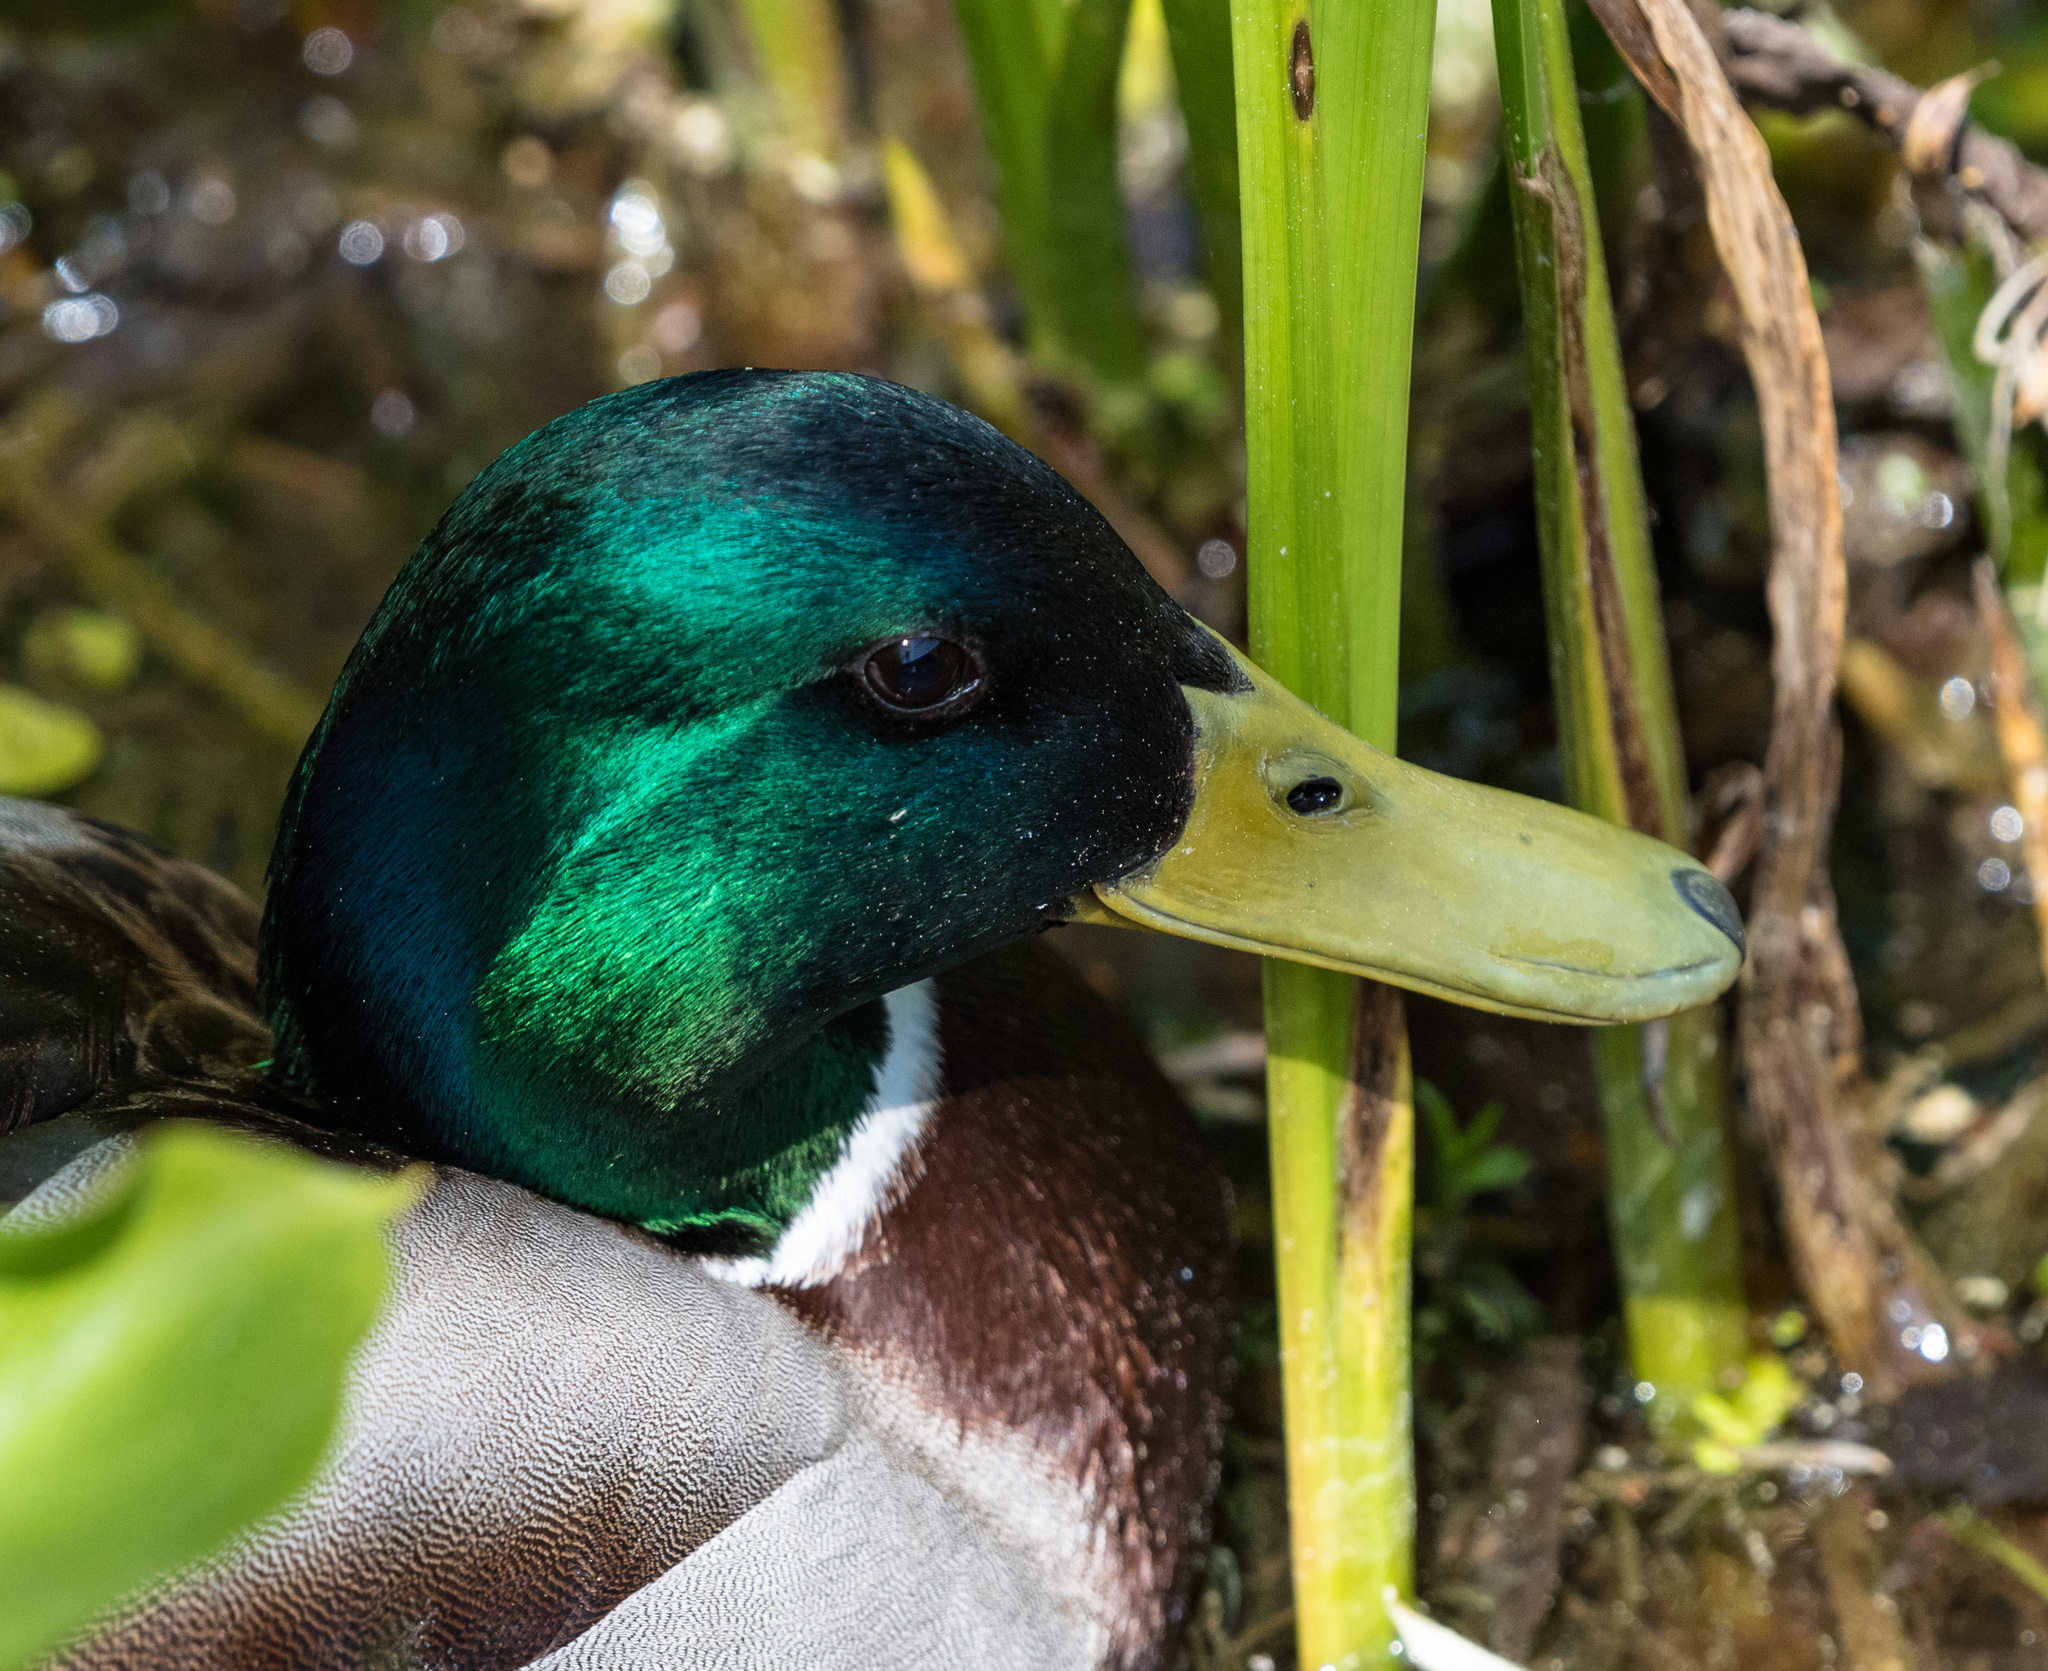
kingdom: Animalia
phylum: Chordata
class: Aves
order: Anseriformes
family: Anatidae
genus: Anas
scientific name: Anas platyrhynchos
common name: Mallard
